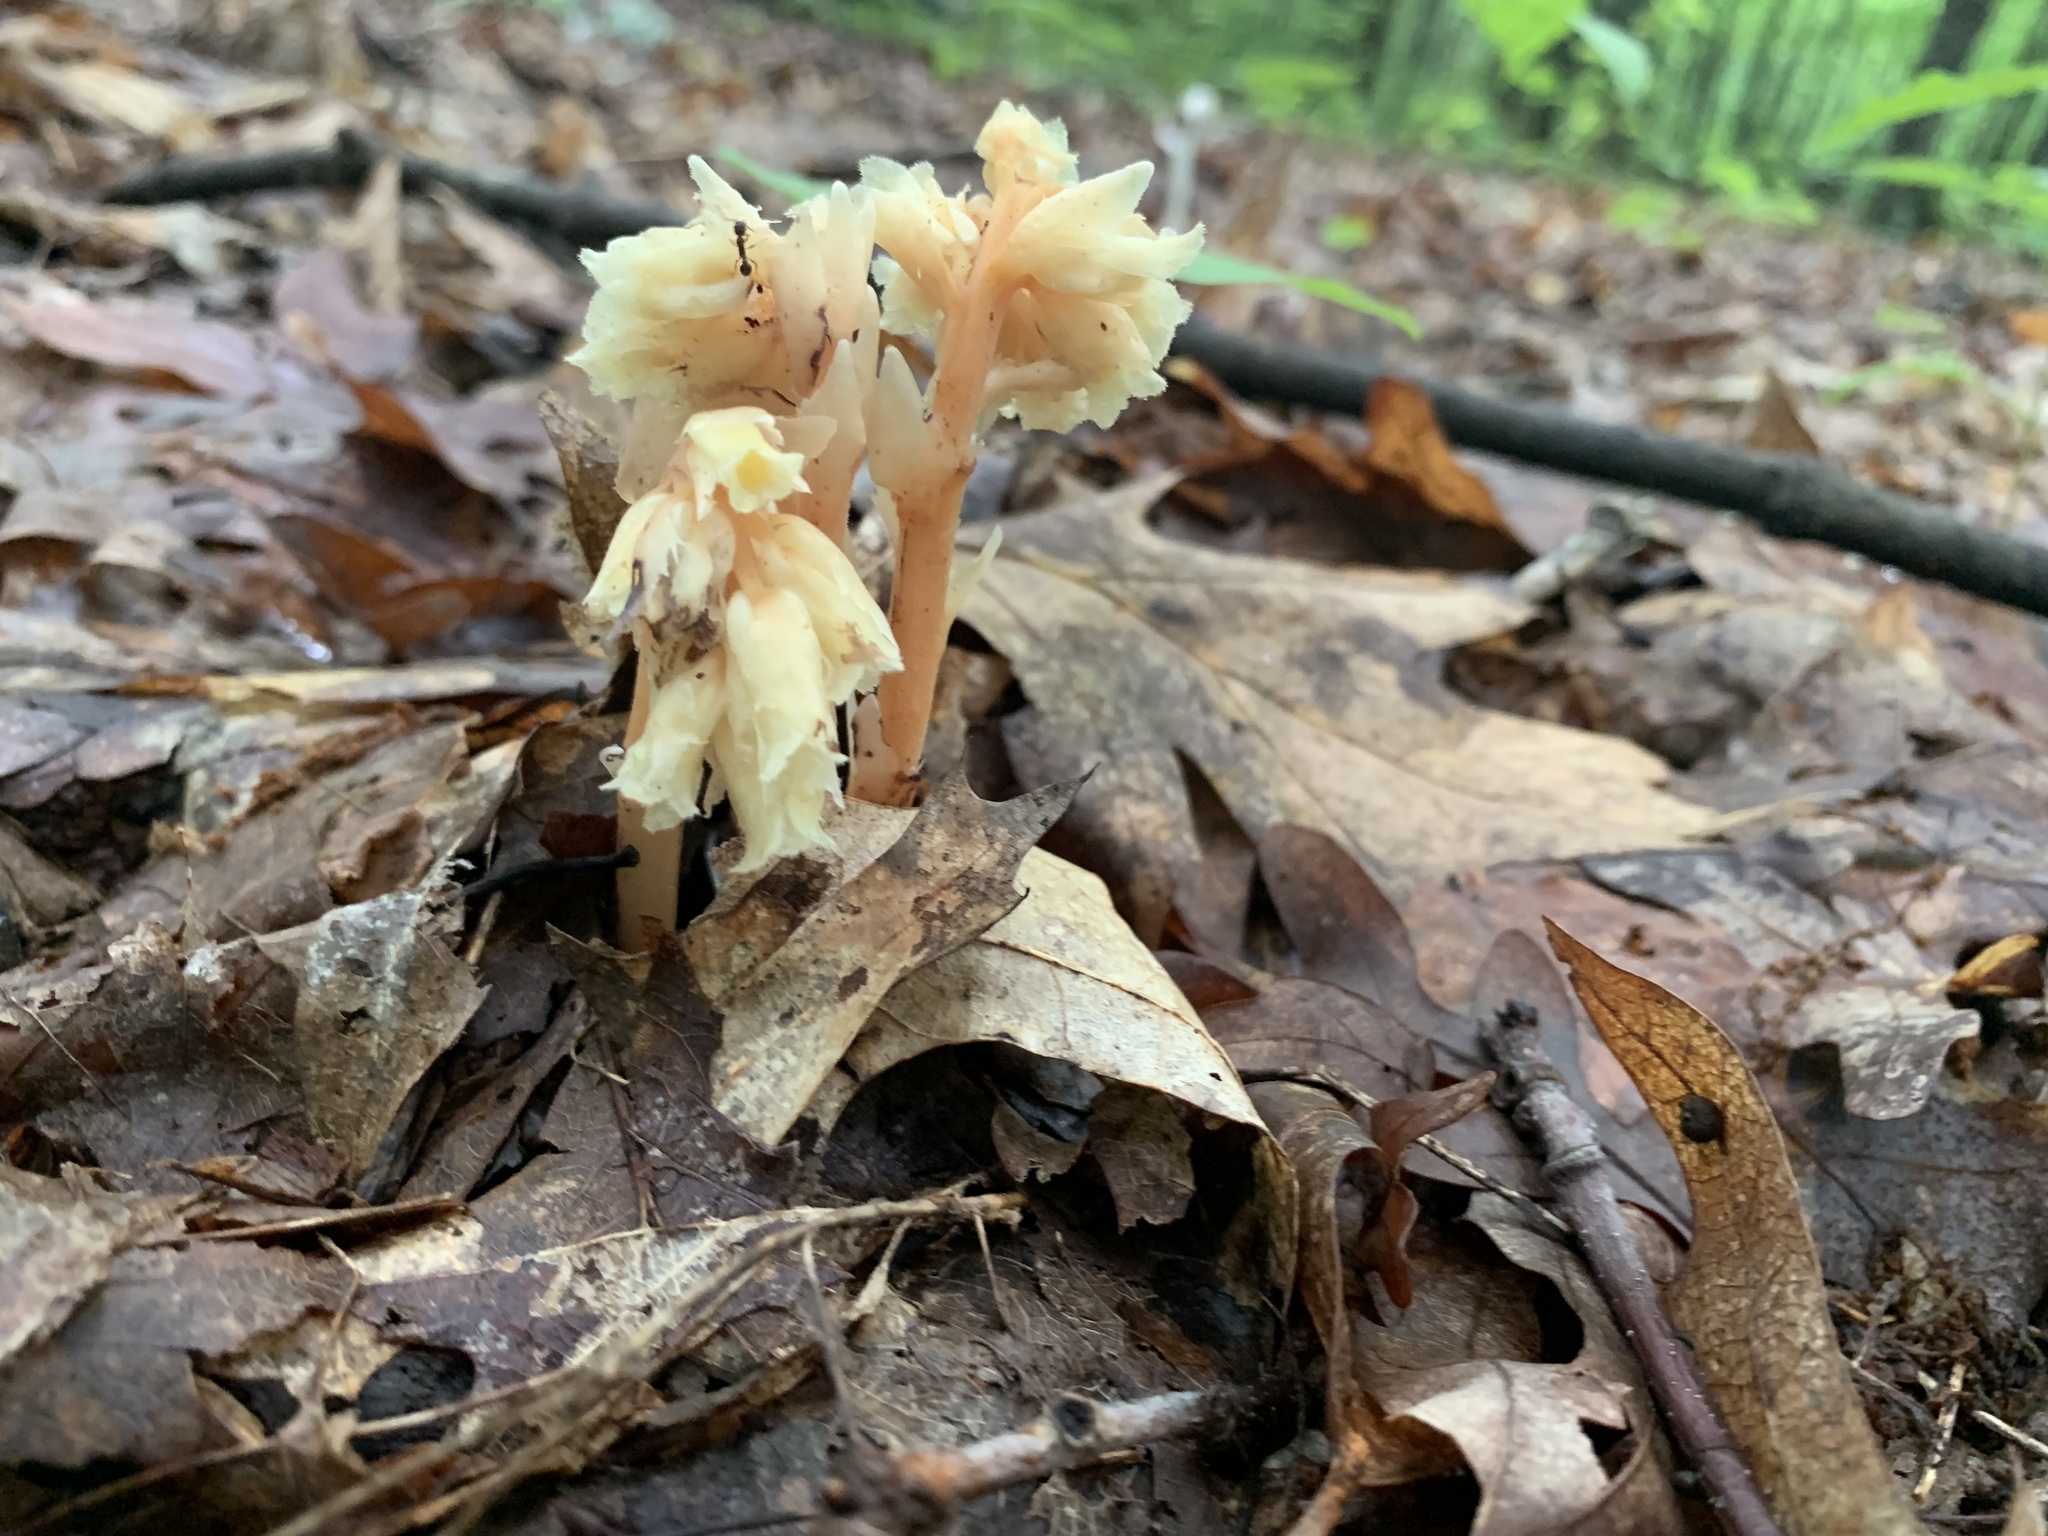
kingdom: Plantae
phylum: Tracheophyta
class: Magnoliopsida
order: Ericales
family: Ericaceae
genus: Hypopitys
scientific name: Hypopitys monotropa
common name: Yellow bird's-nest
